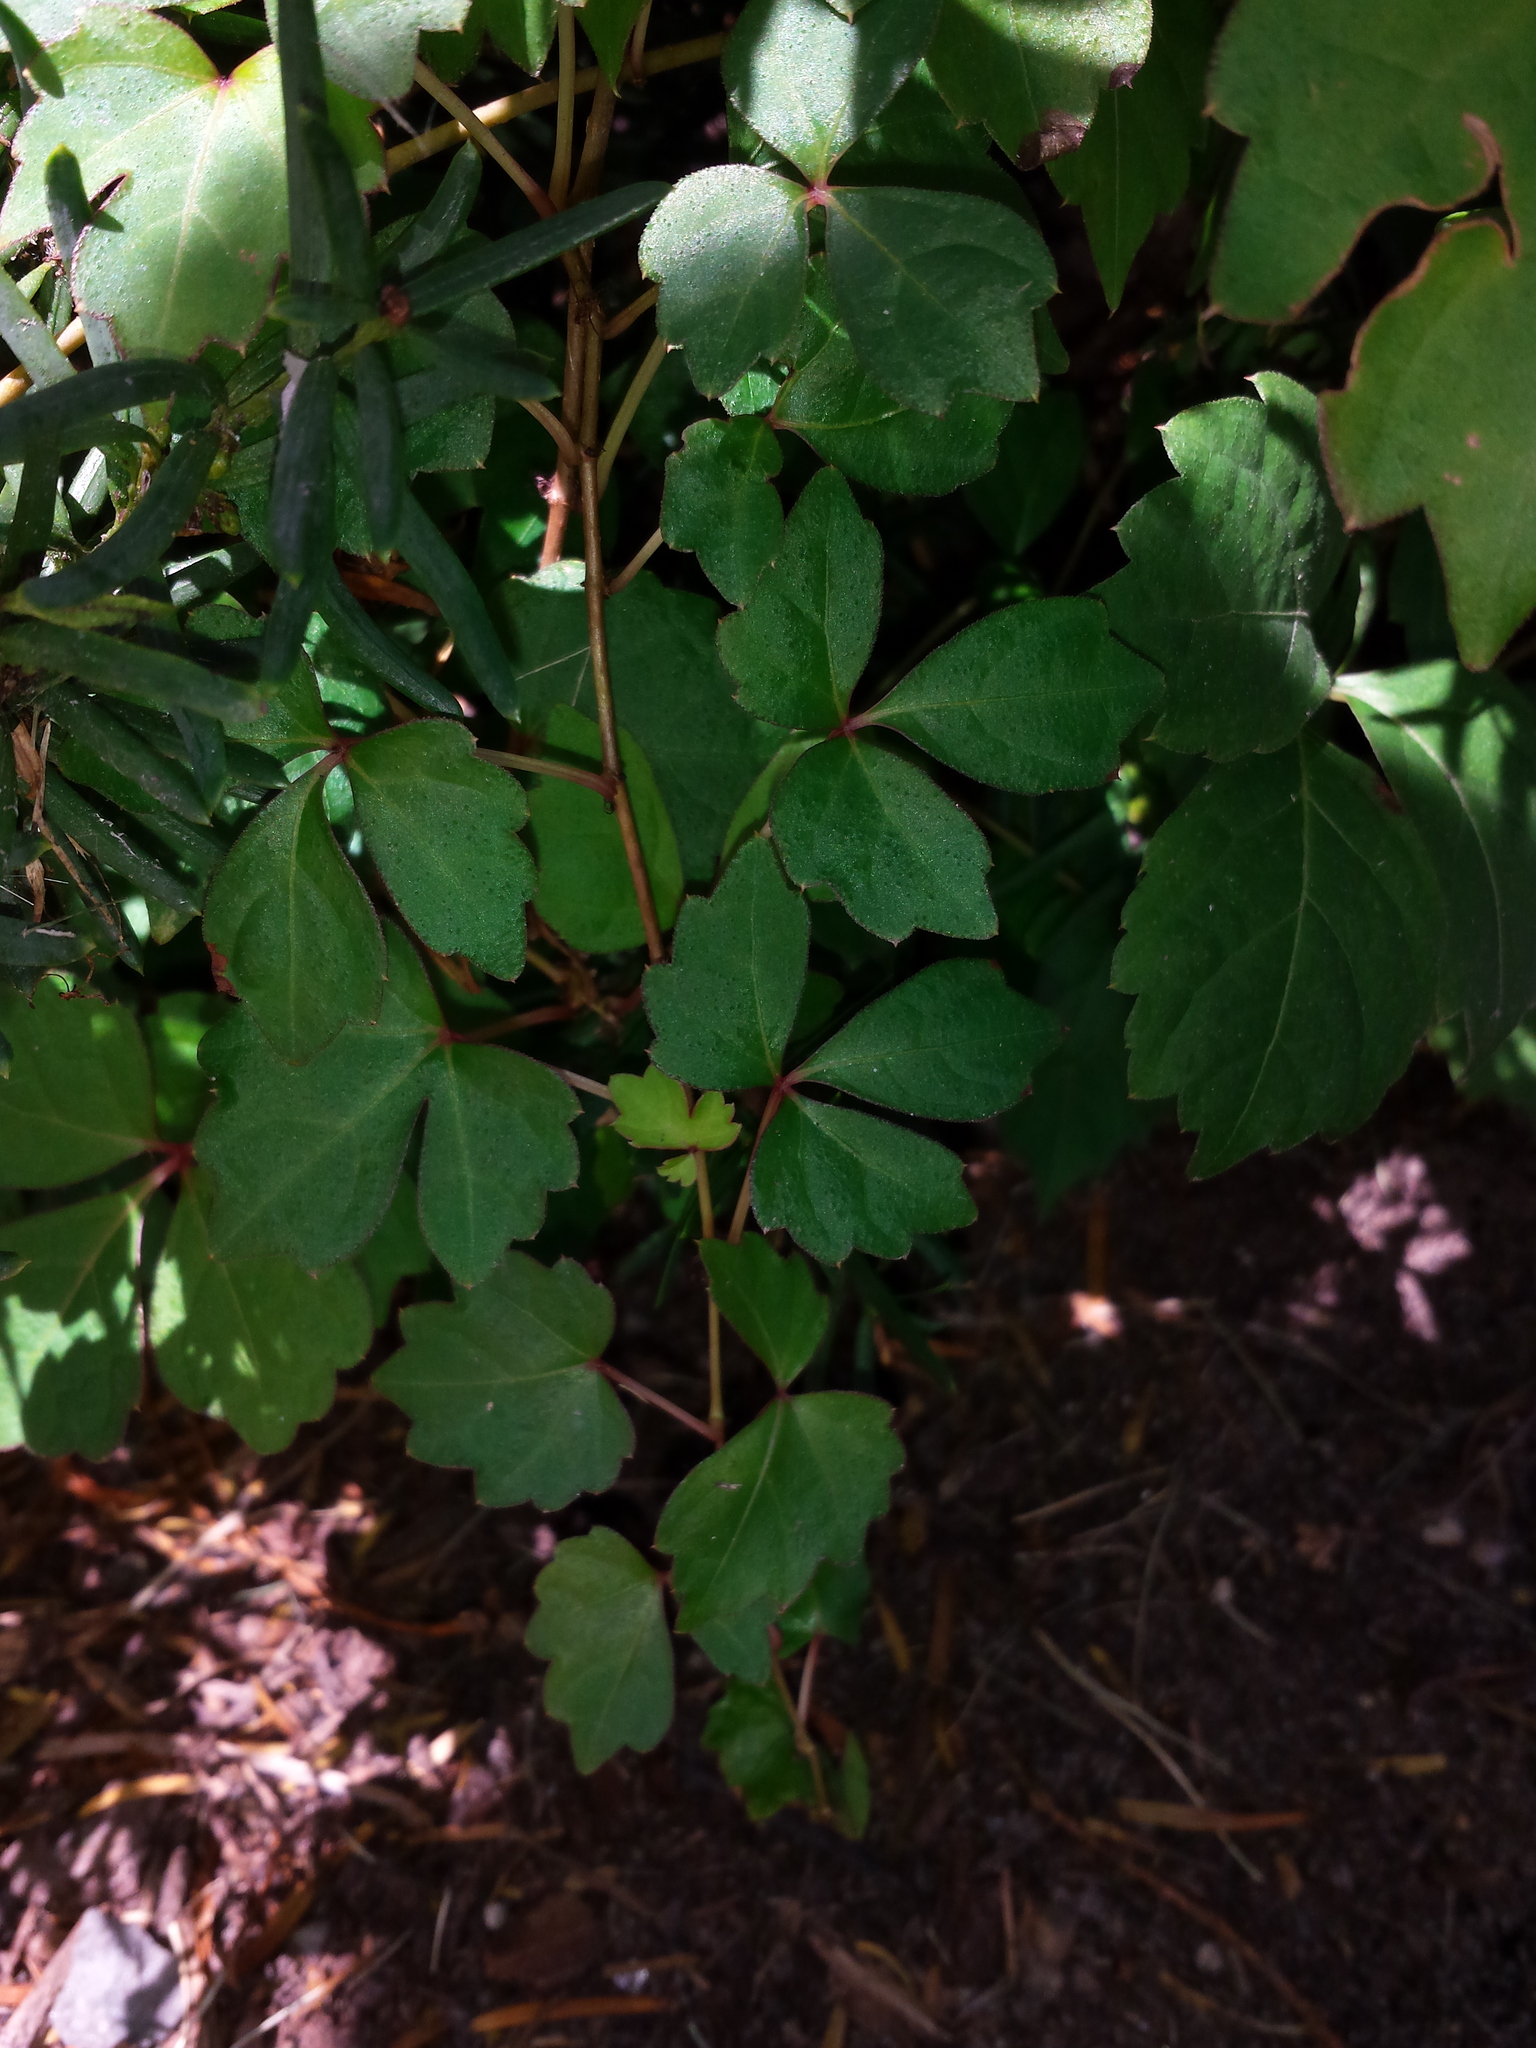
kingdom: Plantae
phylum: Tracheophyta
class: Magnoliopsida
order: Vitales
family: Vitaceae
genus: Parthenocissus
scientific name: Parthenocissus tricuspidata
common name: Boston ivy
